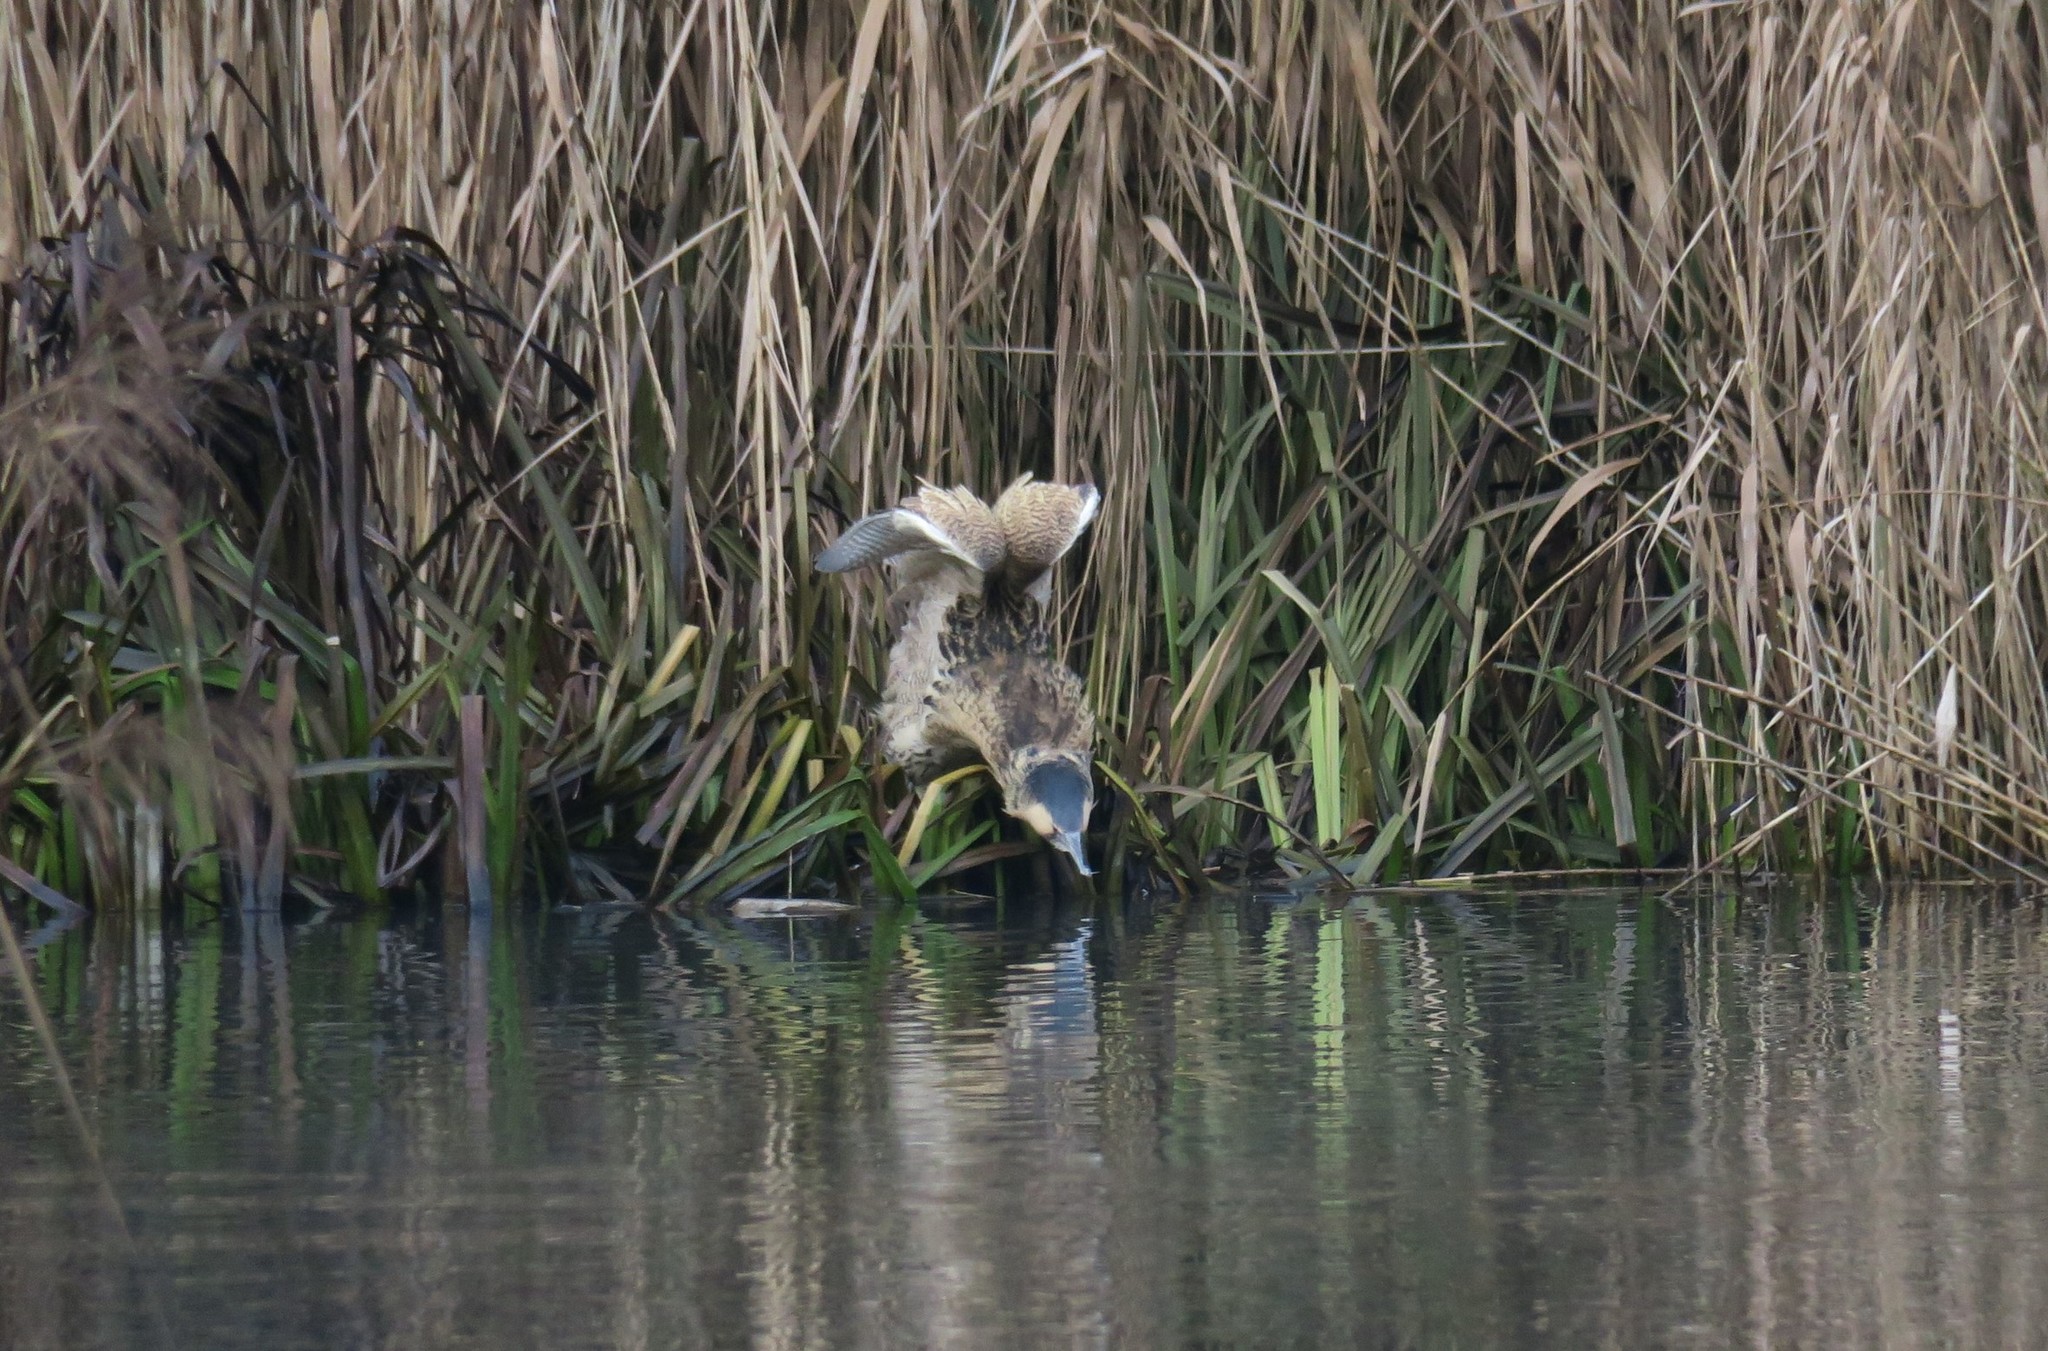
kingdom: Animalia
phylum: Chordata
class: Aves
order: Pelecaniformes
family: Ardeidae
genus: Botaurus
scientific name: Botaurus stellaris
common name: Eurasian bittern
